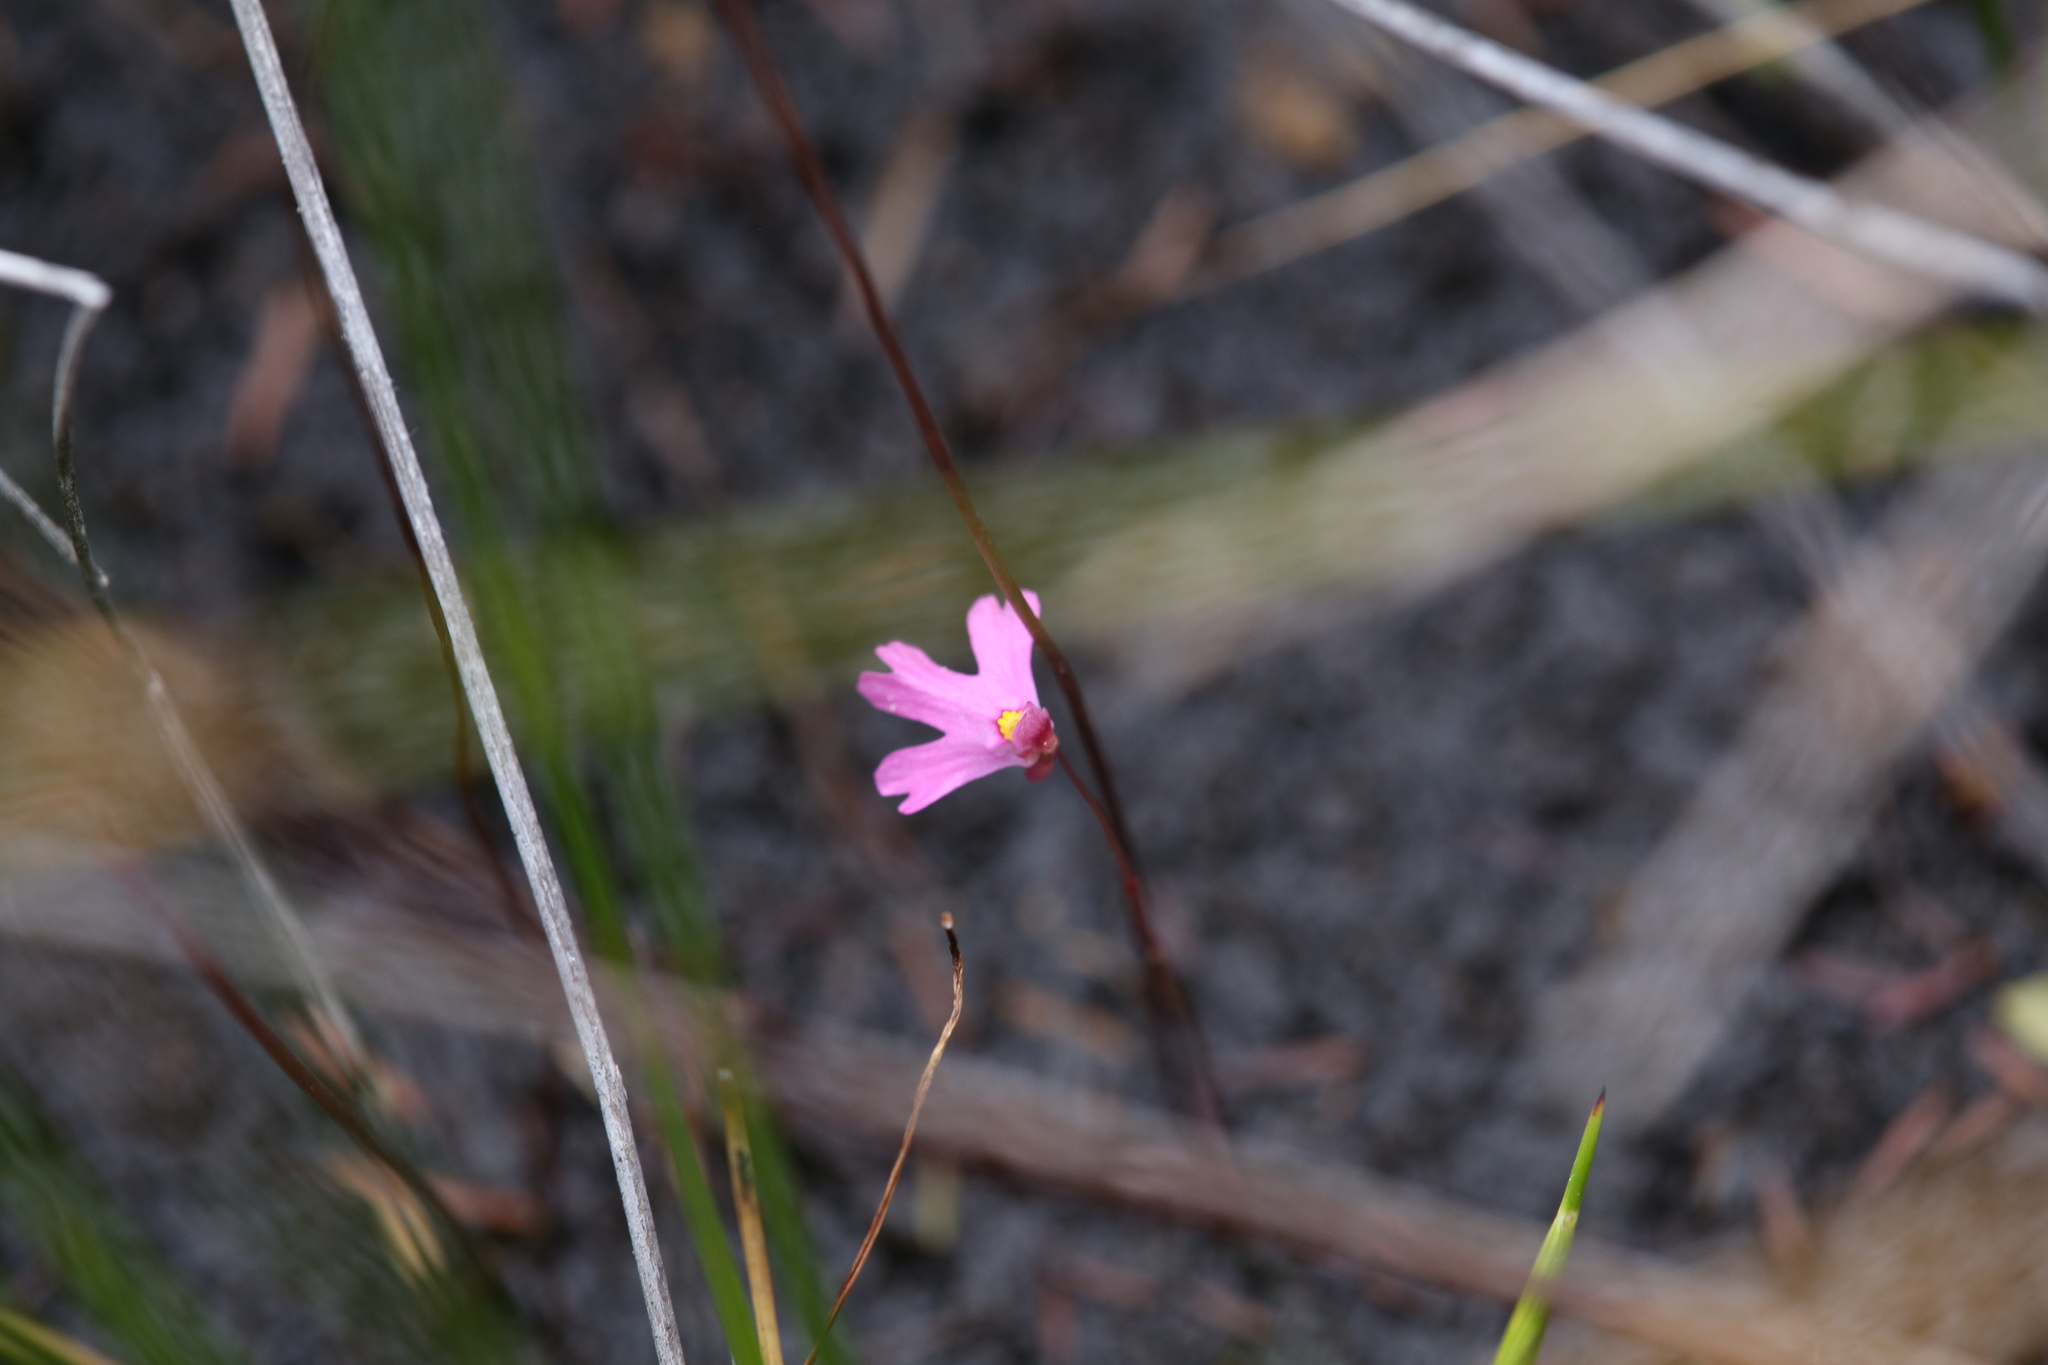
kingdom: Plantae
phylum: Tracheophyta
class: Magnoliopsida
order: Lamiales
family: Lentibulariaceae
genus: Utricularia
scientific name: Utricularia multifida
